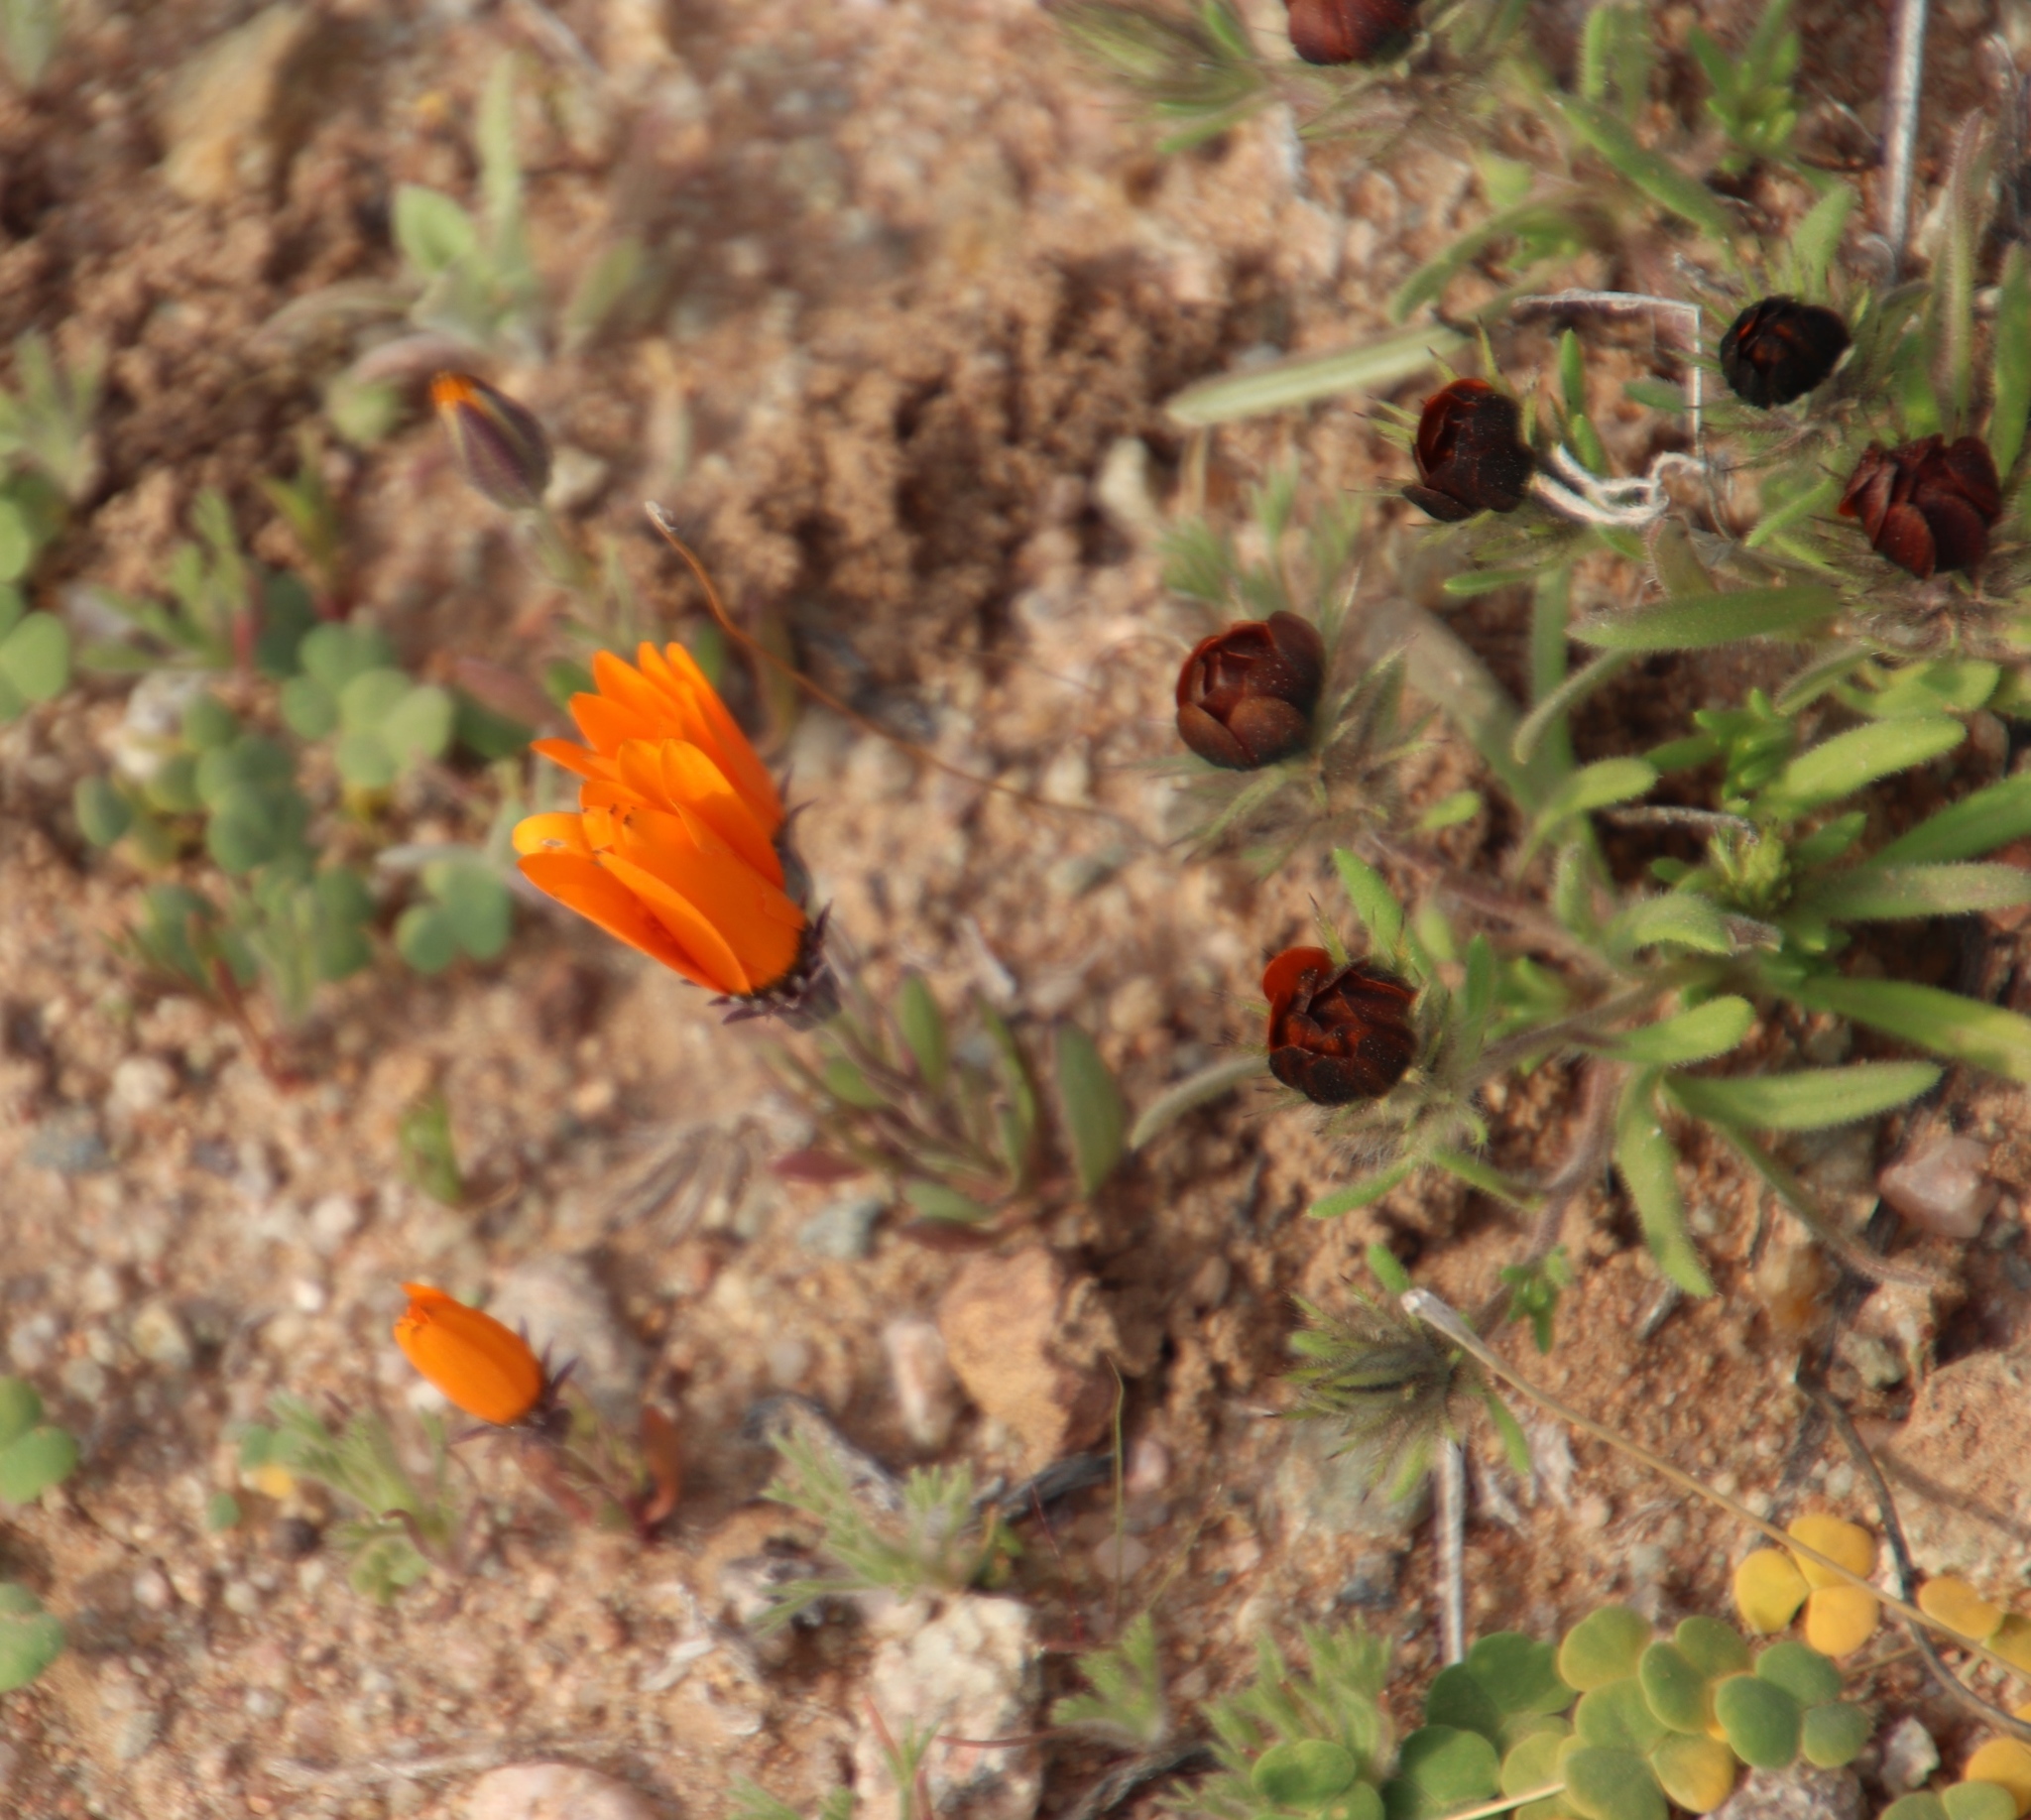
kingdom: Plantae
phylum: Tracheophyta
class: Magnoliopsida
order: Asterales
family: Asteraceae
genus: Gorteria
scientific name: Gorteria diffusa
